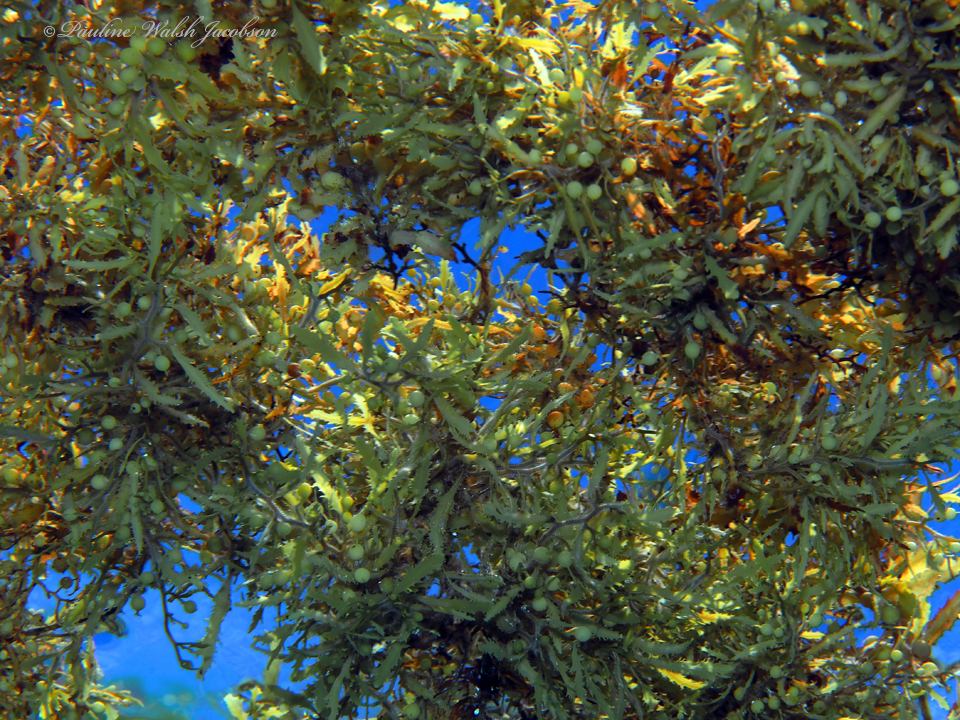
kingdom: Chromista
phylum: Ochrophyta
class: Phaeophyceae
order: Fucales
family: Sargassaceae
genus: Sargassum
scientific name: Sargassum fluitans
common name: Sargassum seaweed
